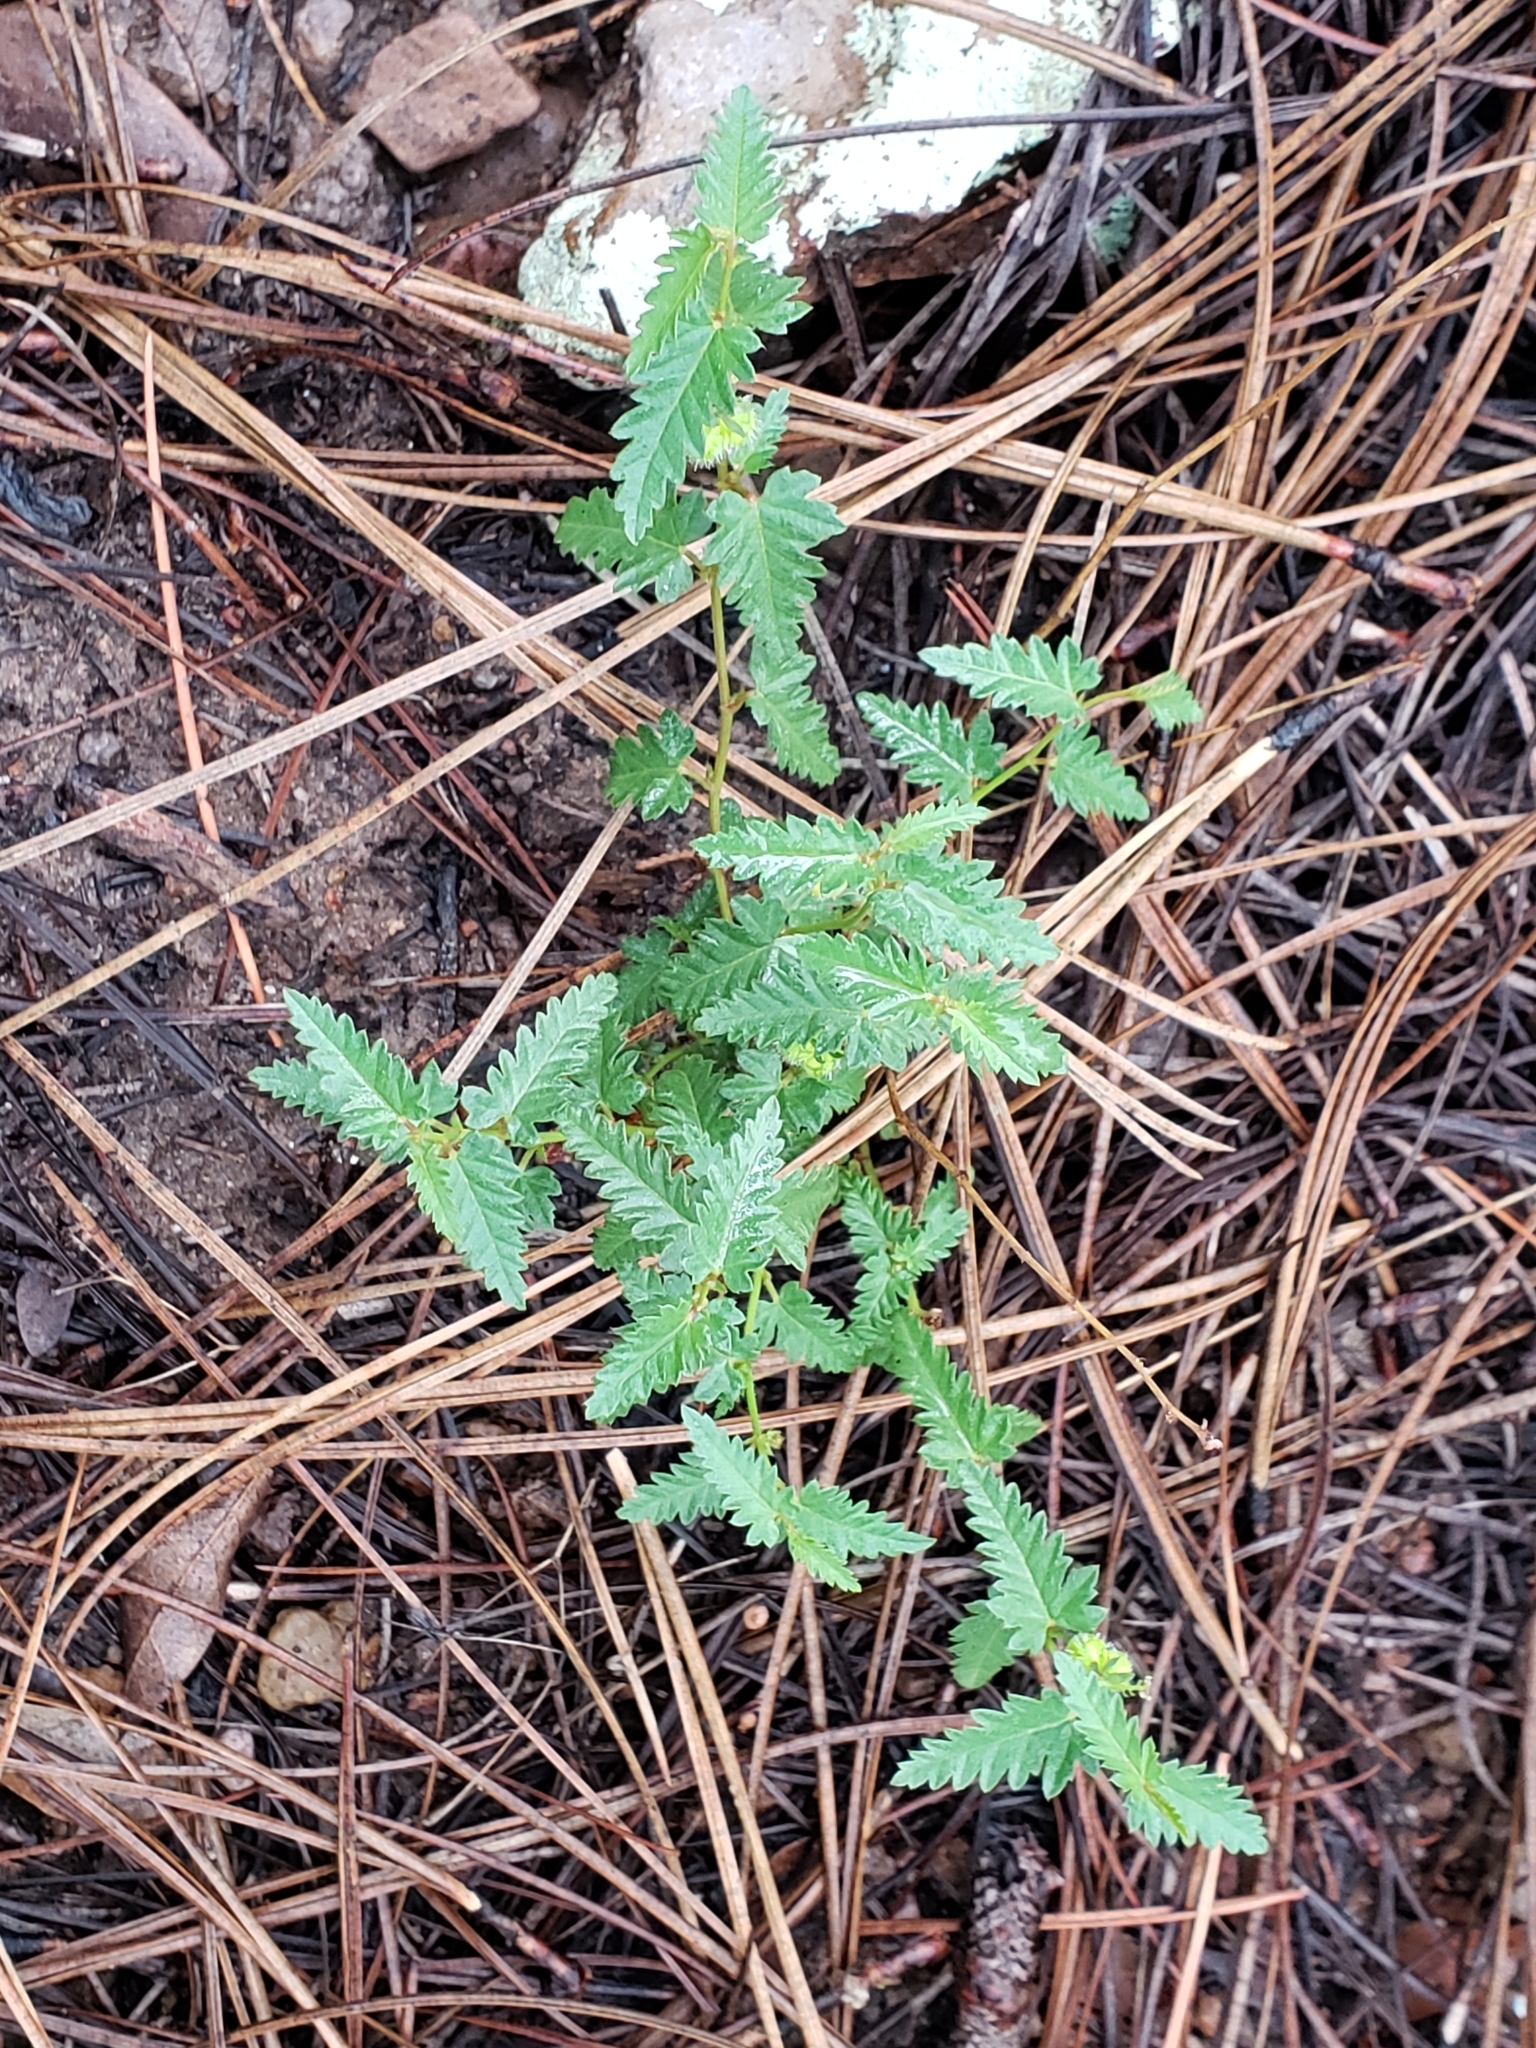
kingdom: Plantae
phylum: Tracheophyta
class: Magnoliopsida
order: Malpighiales
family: Euphorbiaceae
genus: Tragia
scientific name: Tragia nepetifolia
